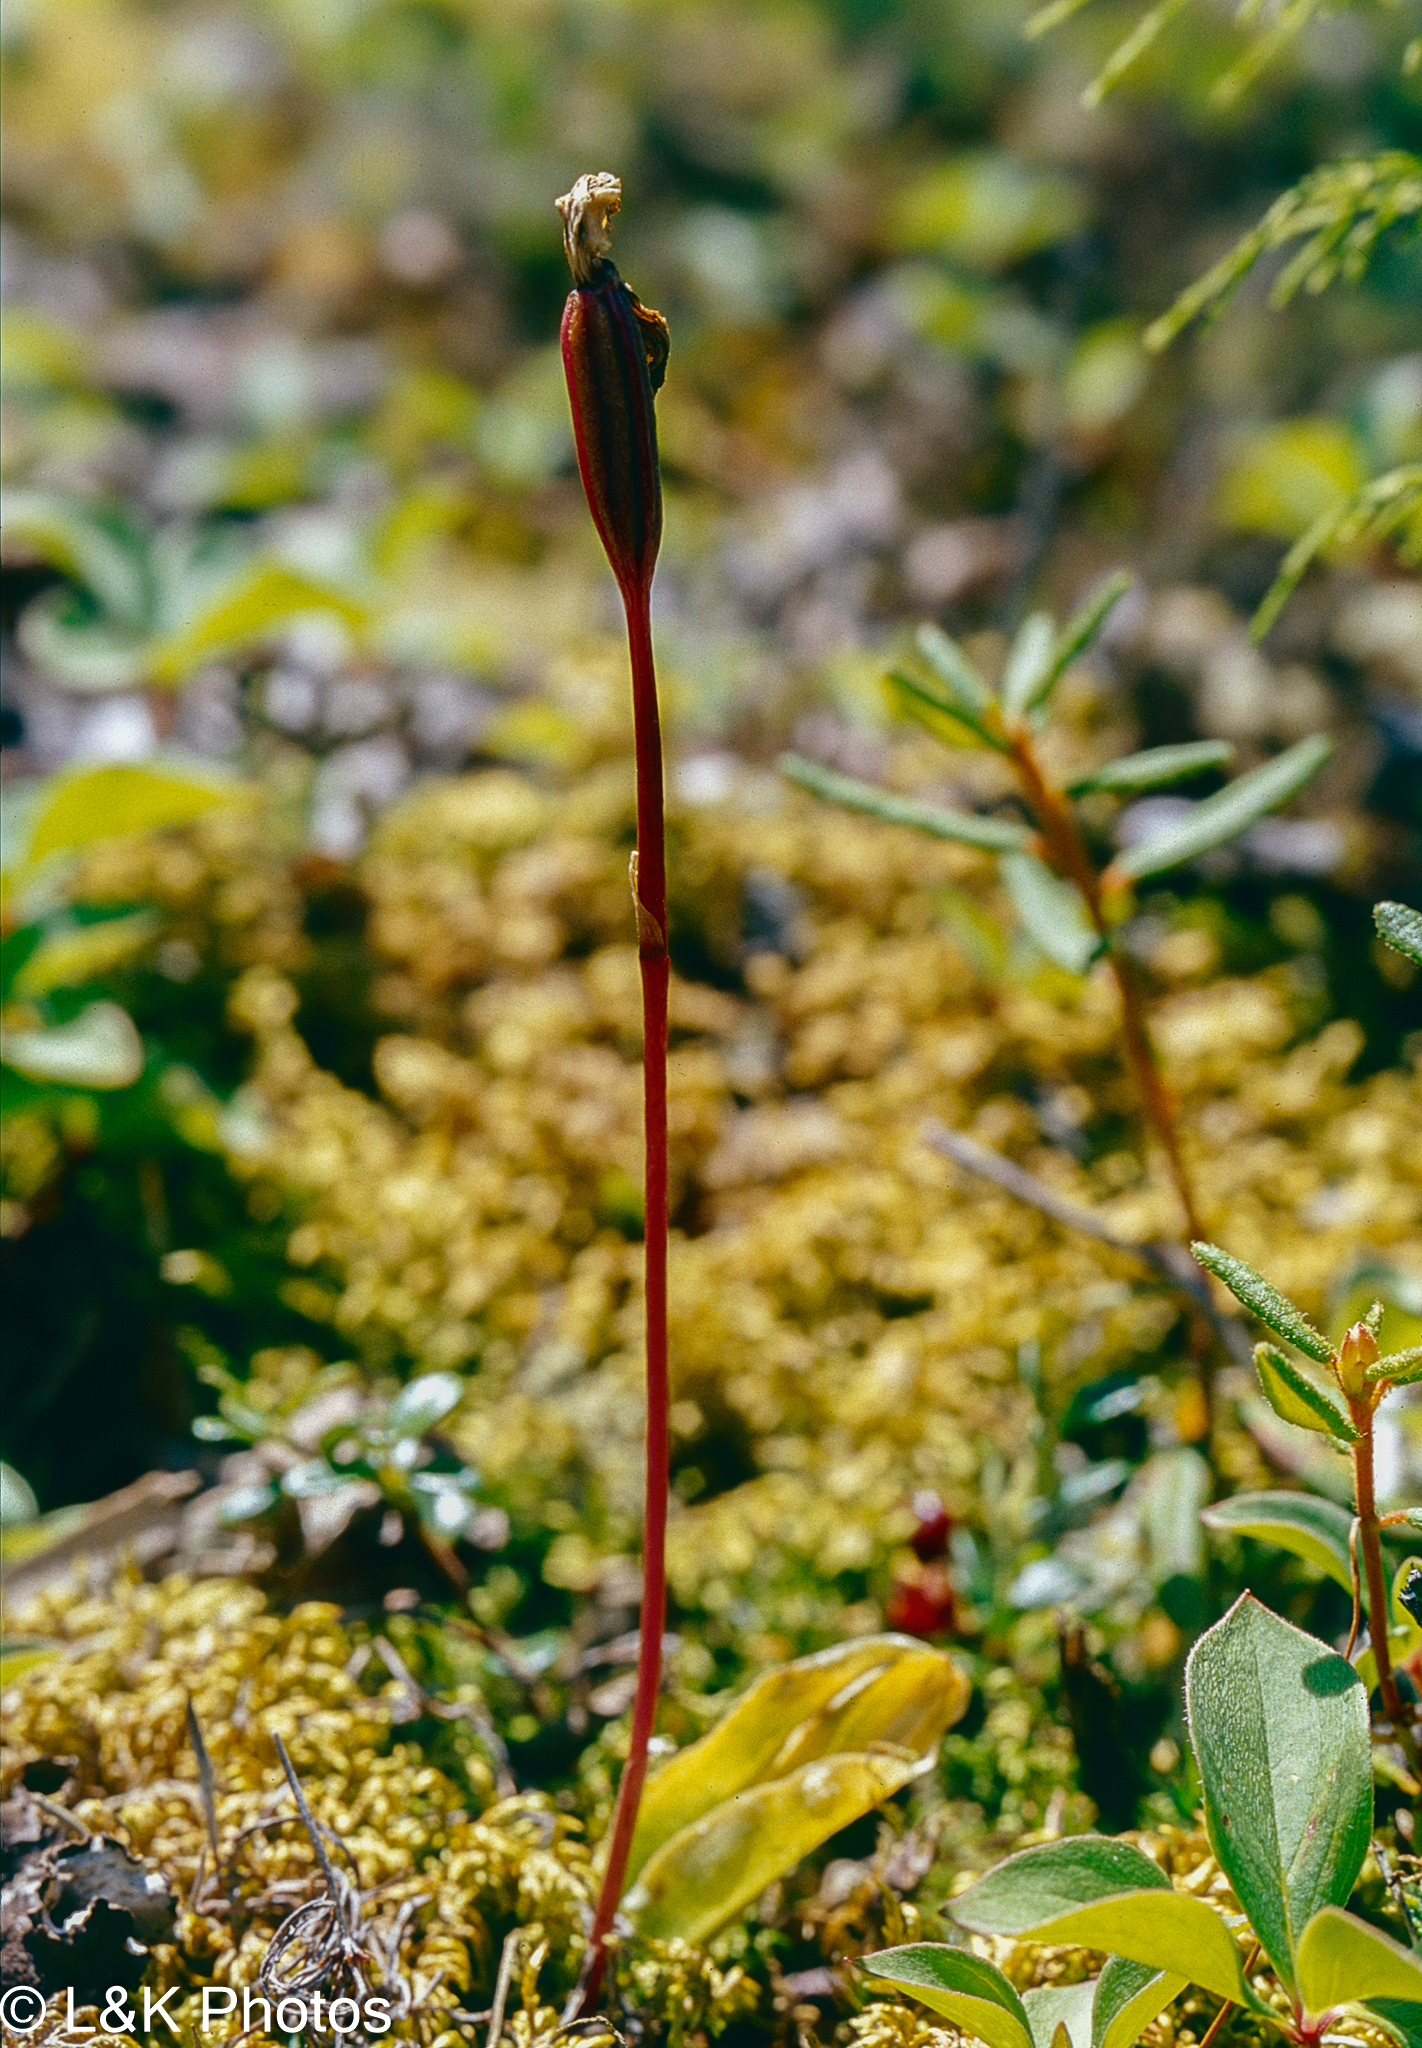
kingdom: Plantae
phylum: Tracheophyta
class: Liliopsida
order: Asparagales
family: Orchidaceae
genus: Calypso
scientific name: Calypso bulbosa
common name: Calypso
